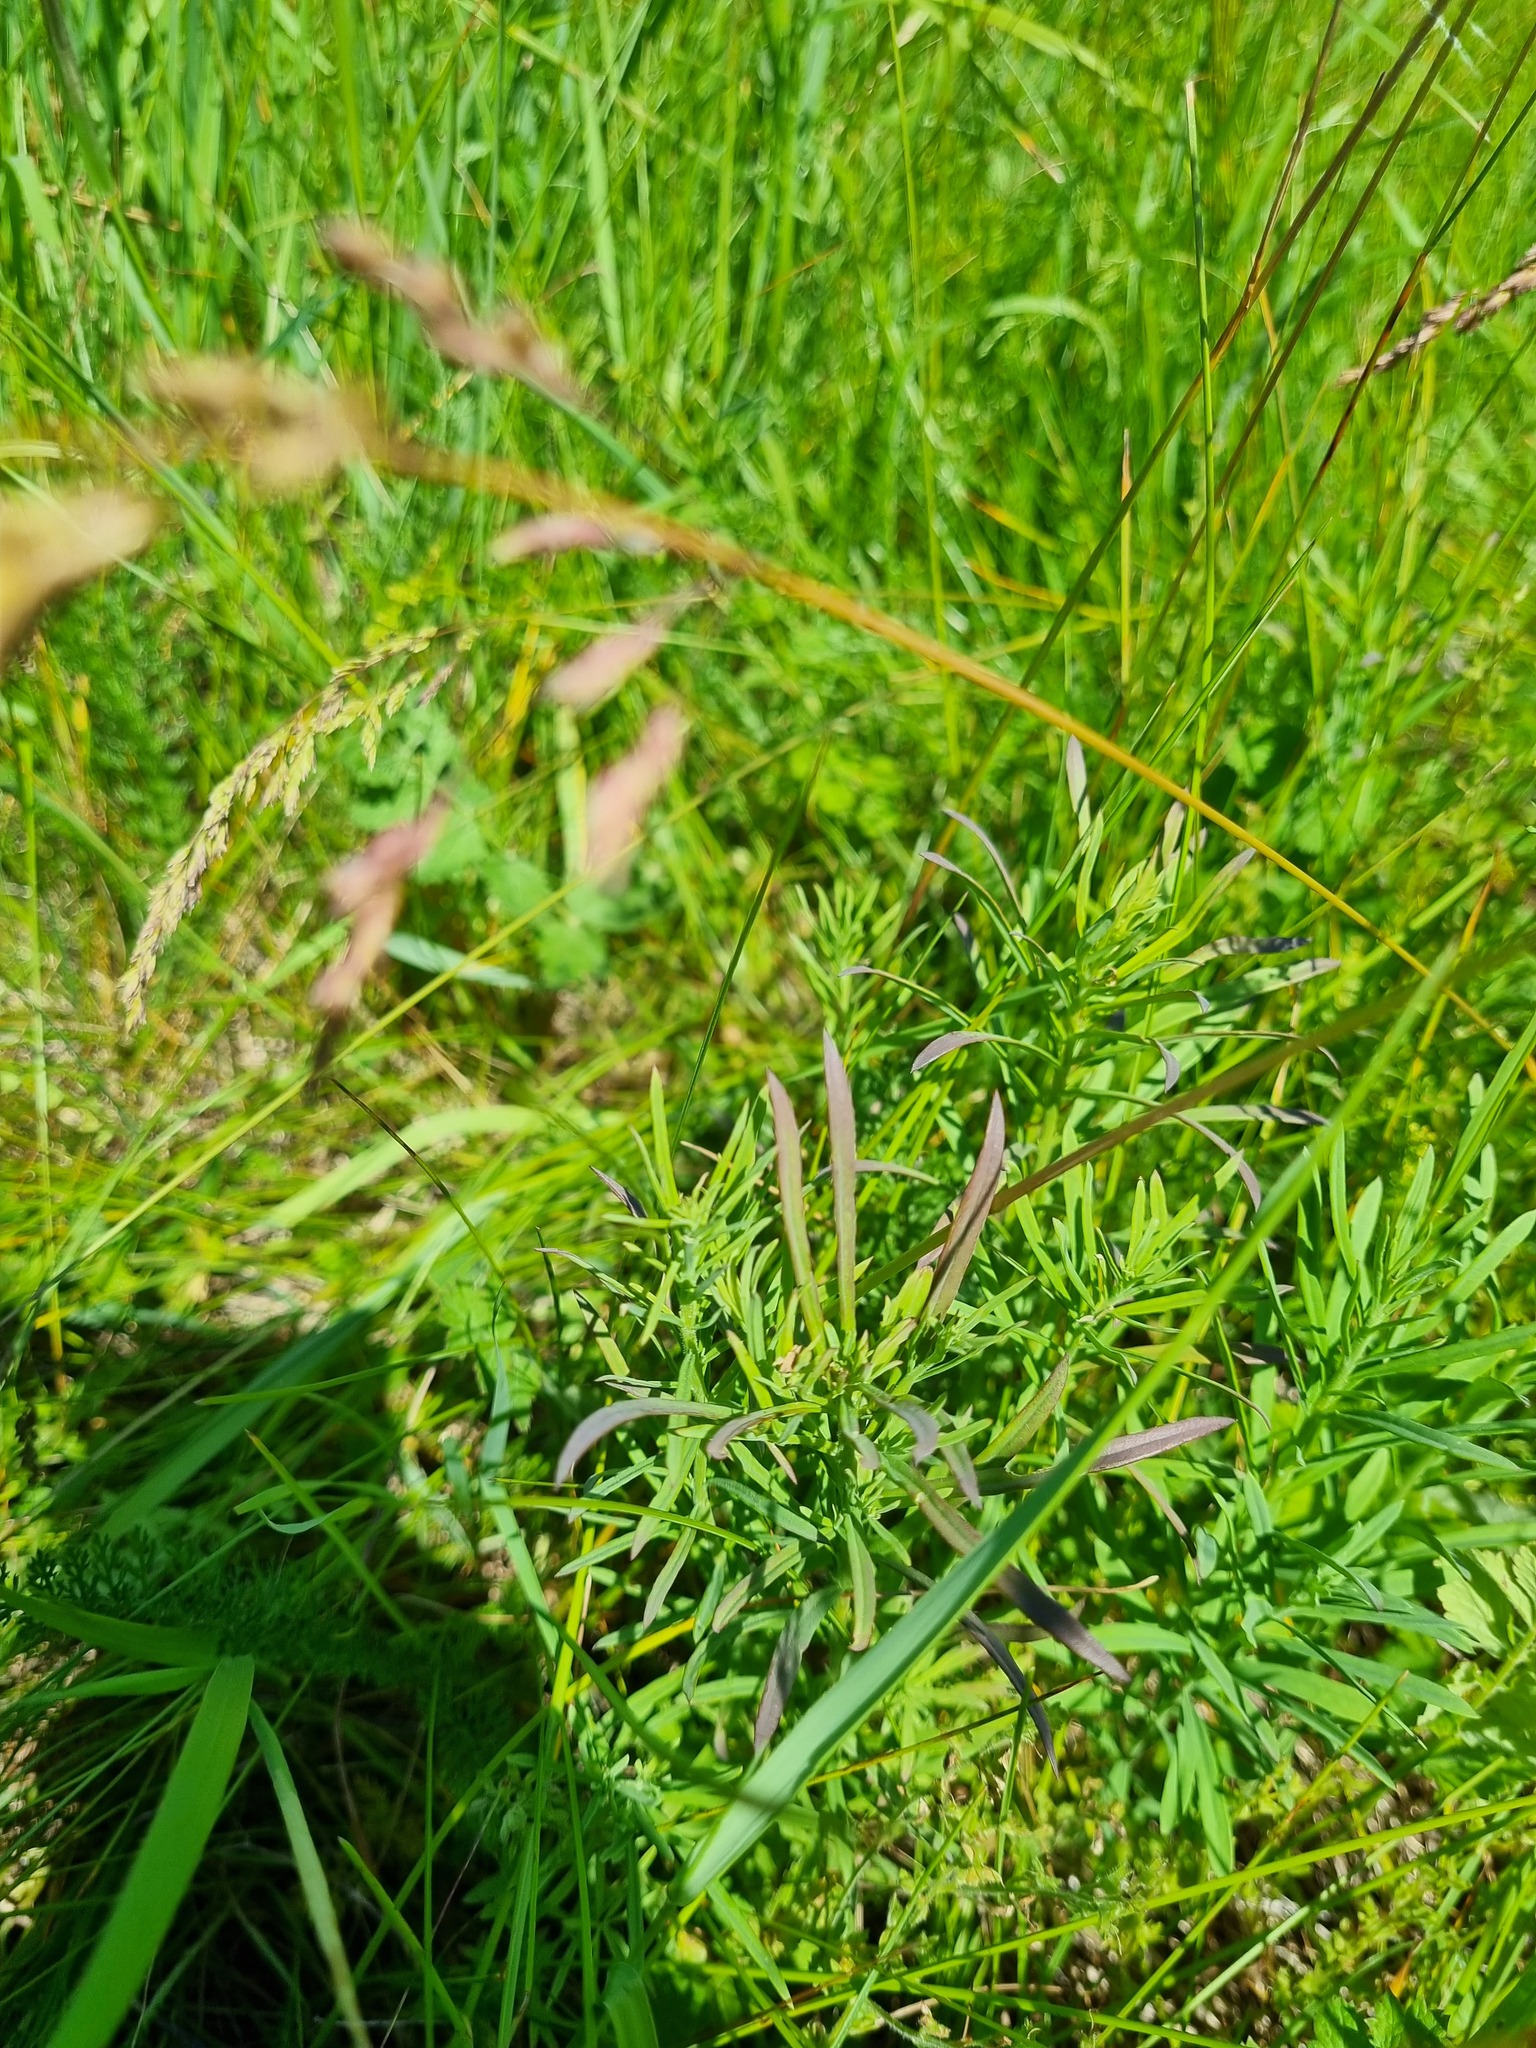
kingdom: Plantae
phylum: Tracheophyta
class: Magnoliopsida
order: Lamiales
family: Plantaginaceae
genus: Linaria
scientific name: Linaria vulgaris
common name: Butter and eggs
